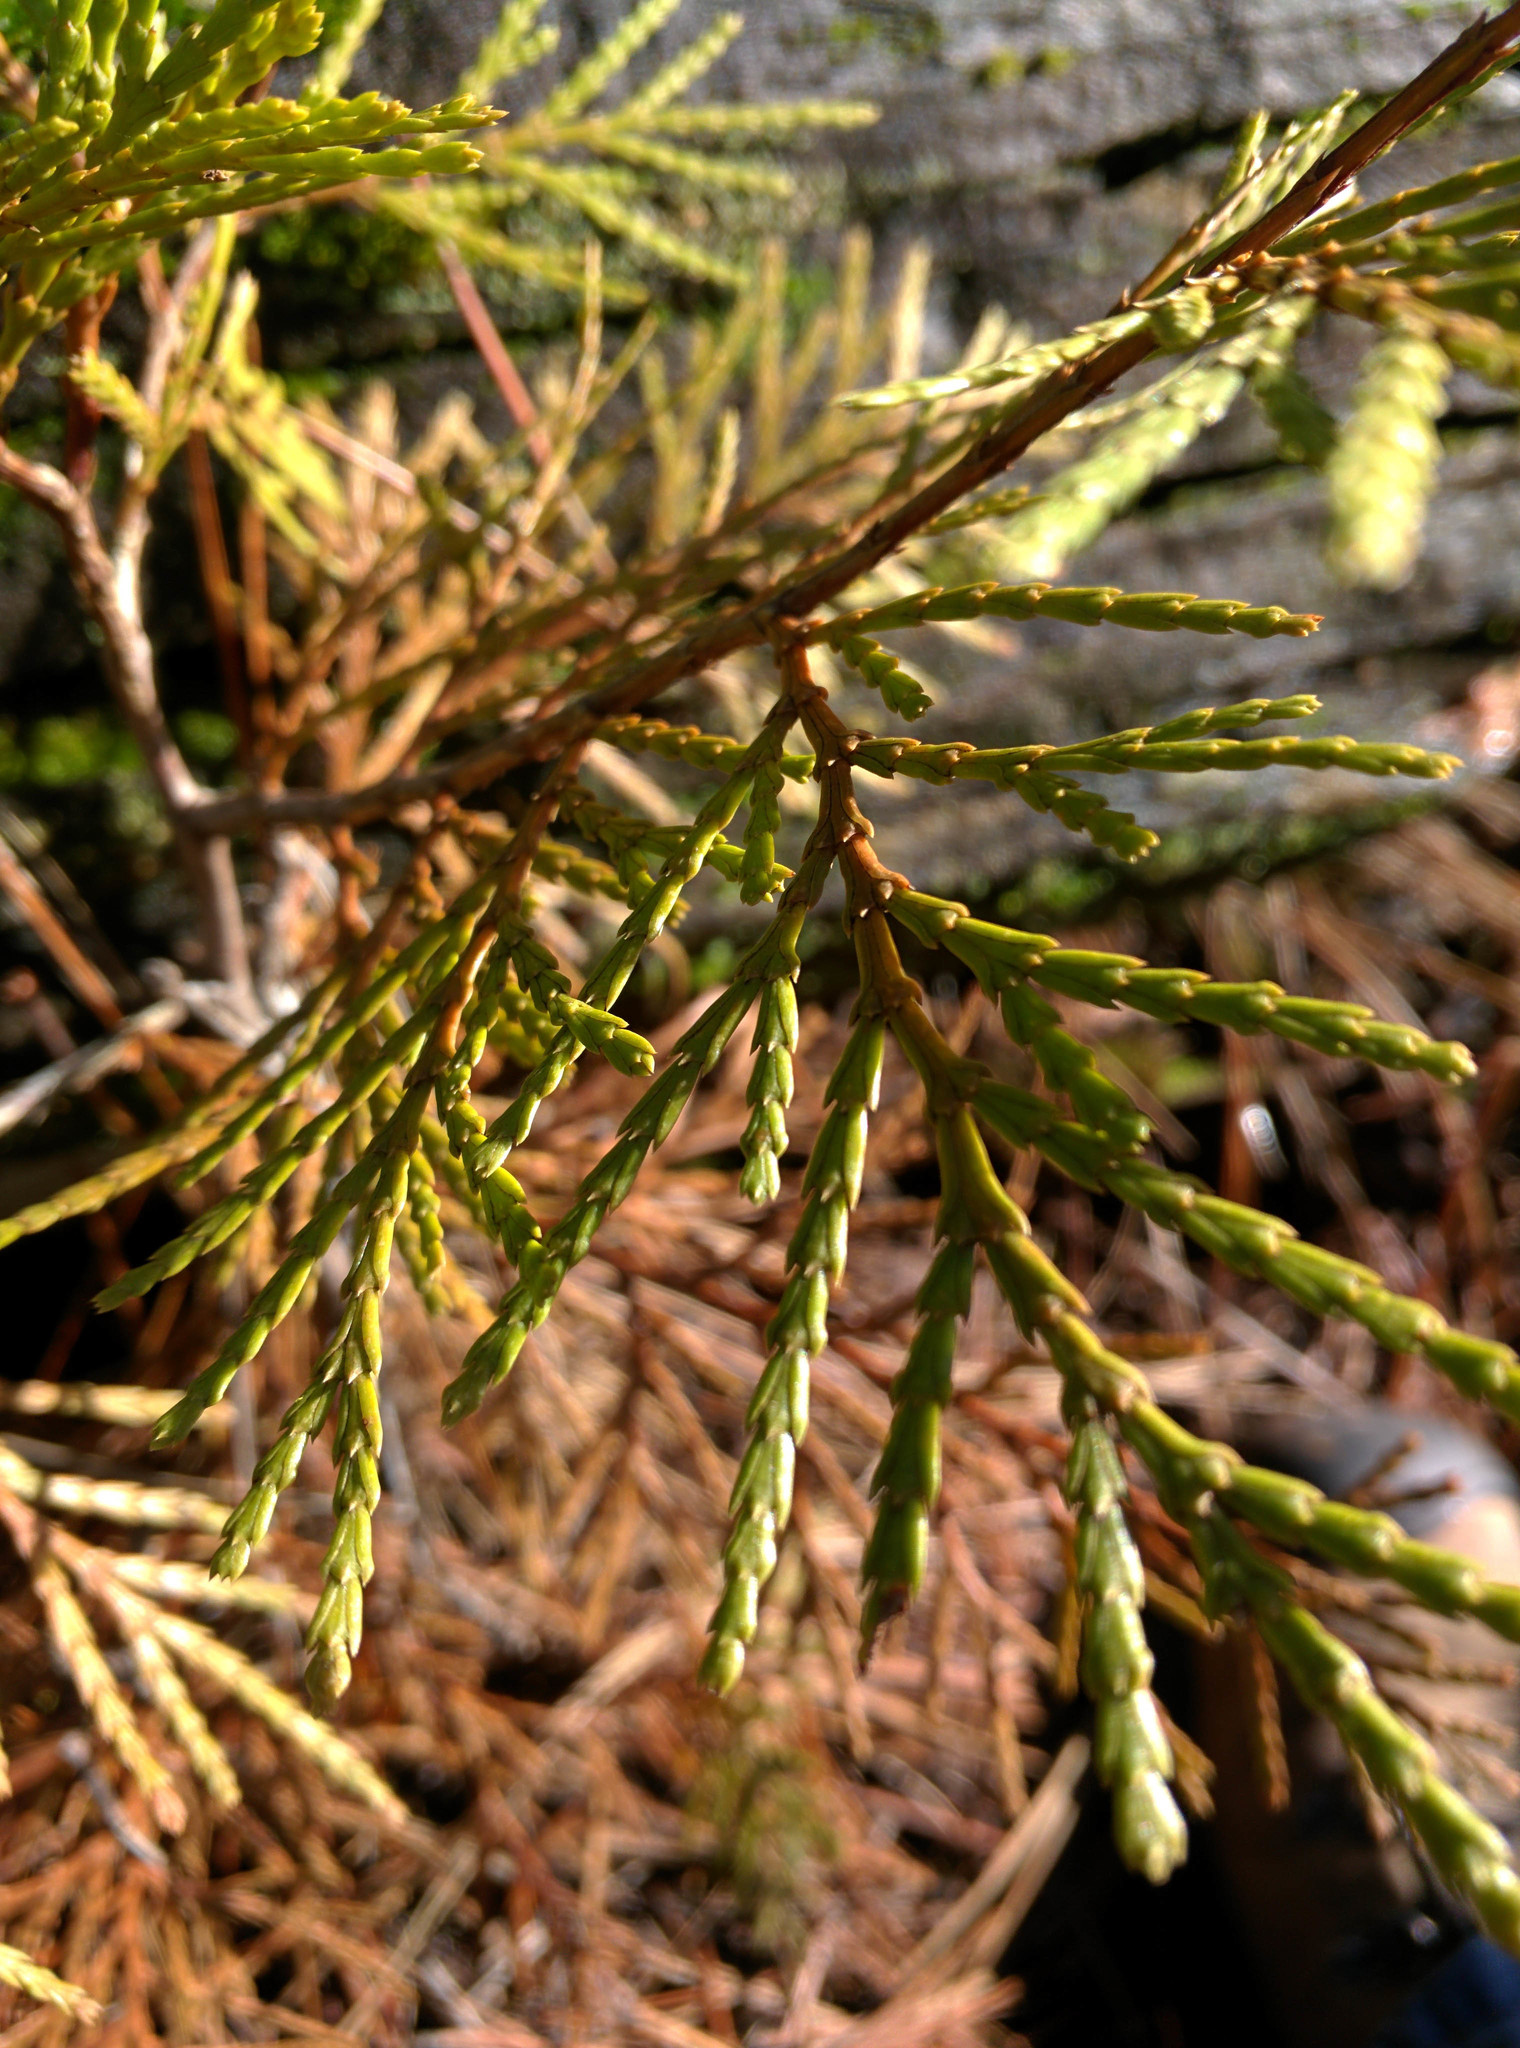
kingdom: Plantae
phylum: Tracheophyta
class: Pinopsida
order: Pinales
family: Cupressaceae
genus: Calocedrus
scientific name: Calocedrus decurrens
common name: Californian incense-cedar
